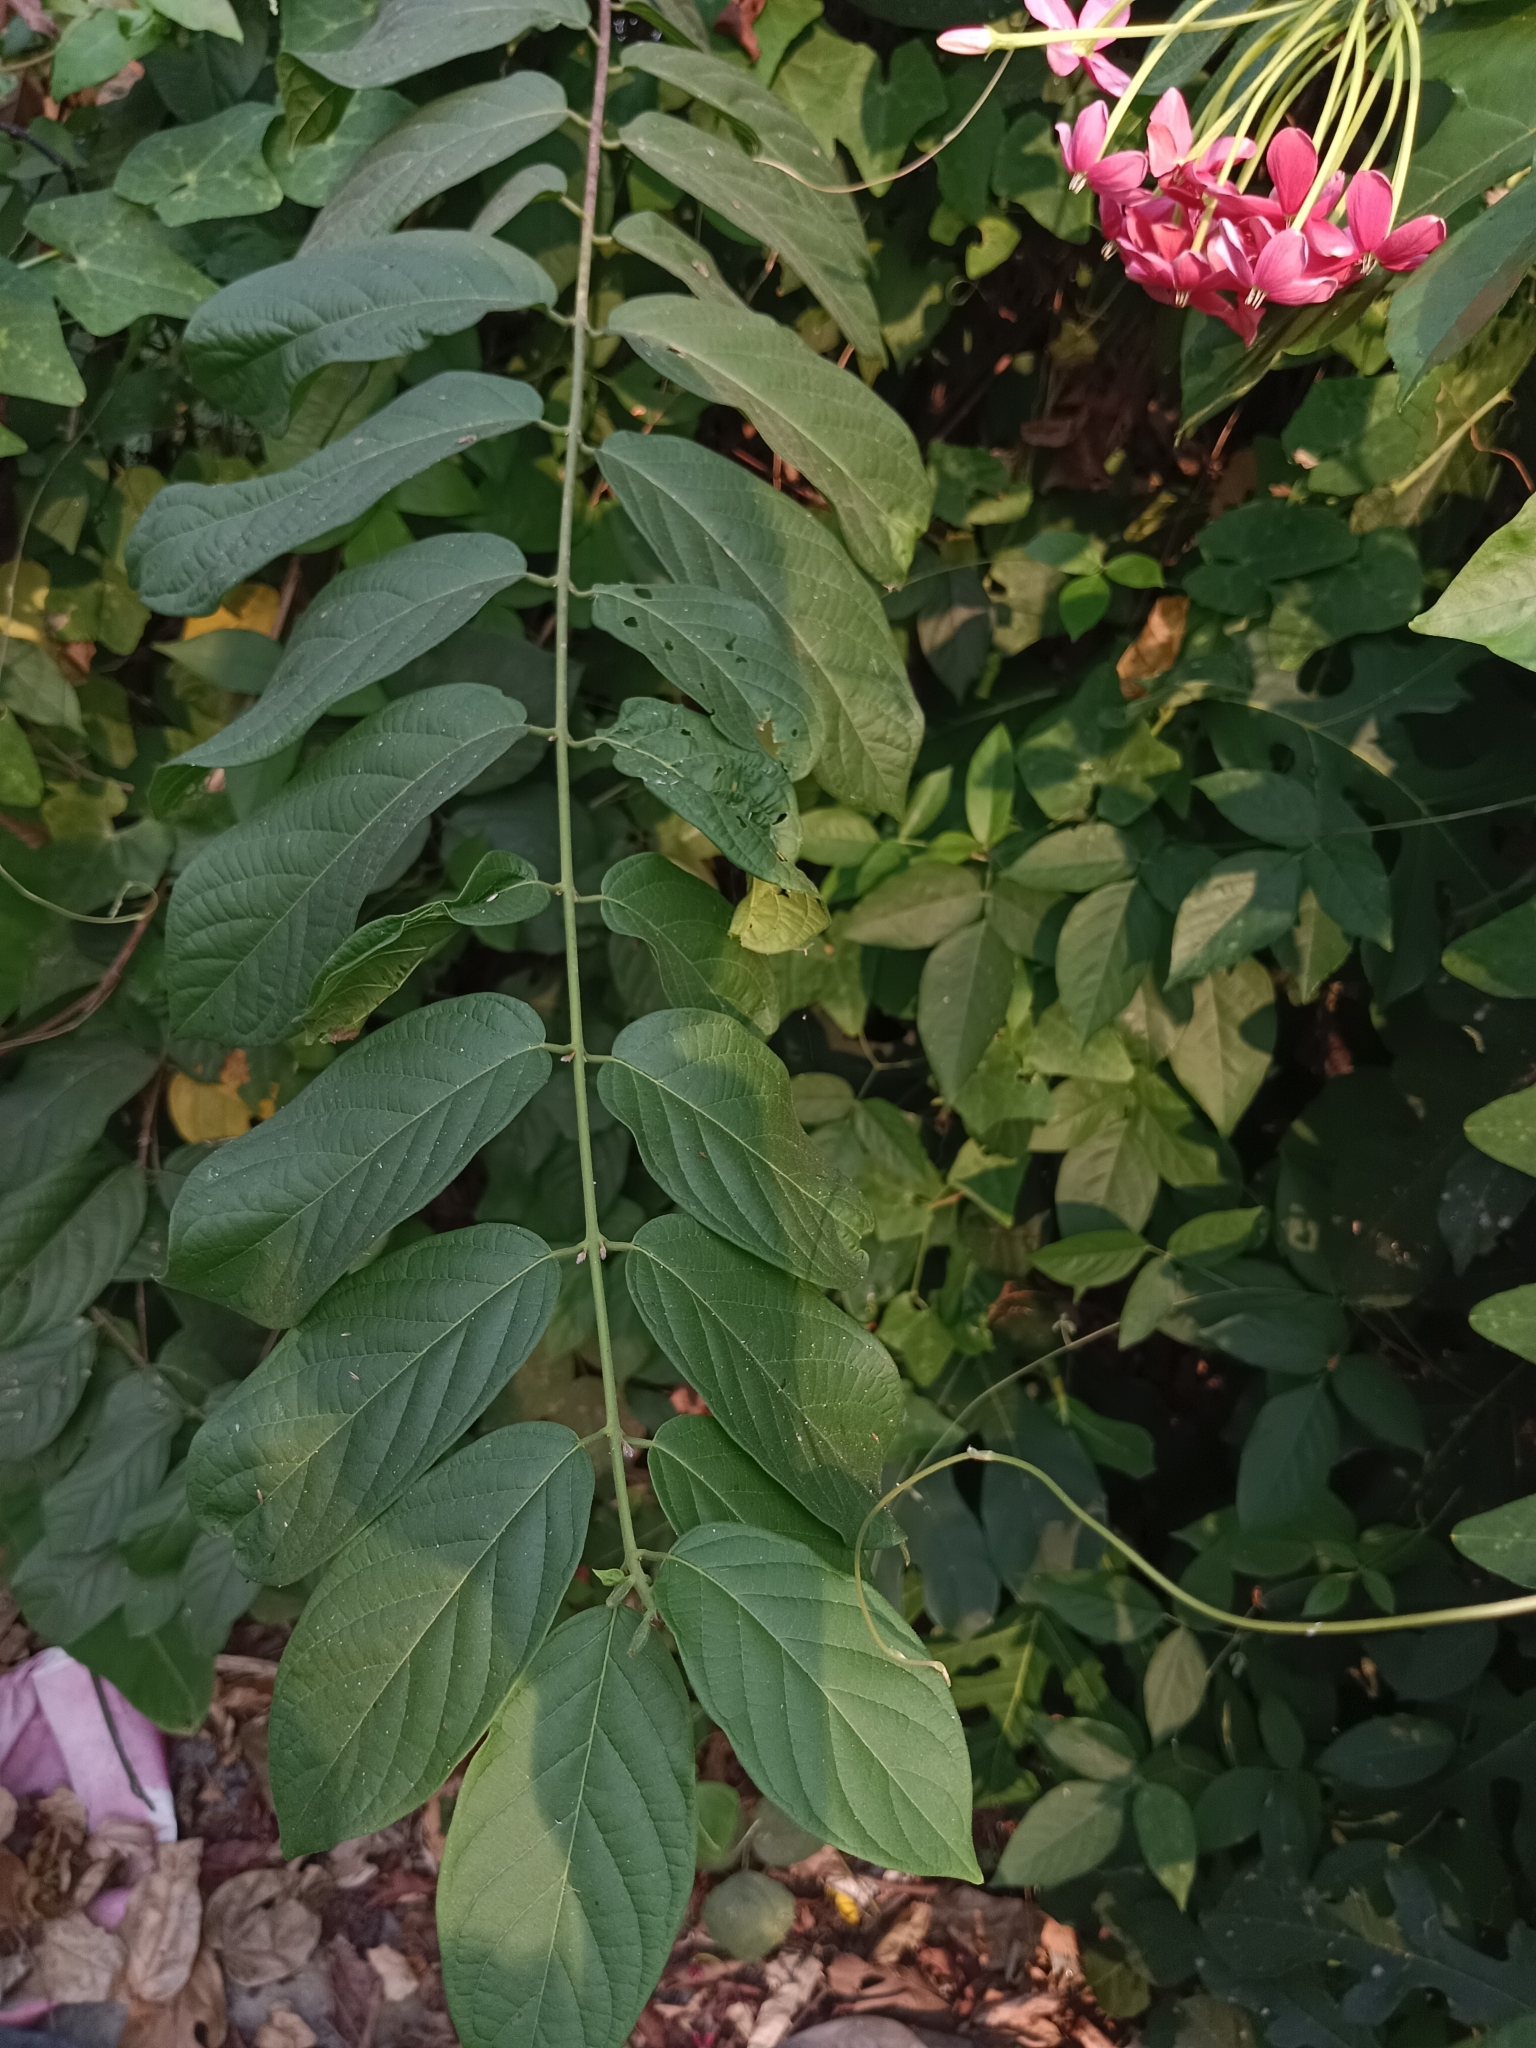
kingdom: Plantae
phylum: Tracheophyta
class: Magnoliopsida
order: Myrtales
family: Combretaceae
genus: Combretum
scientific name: Combretum indicum
